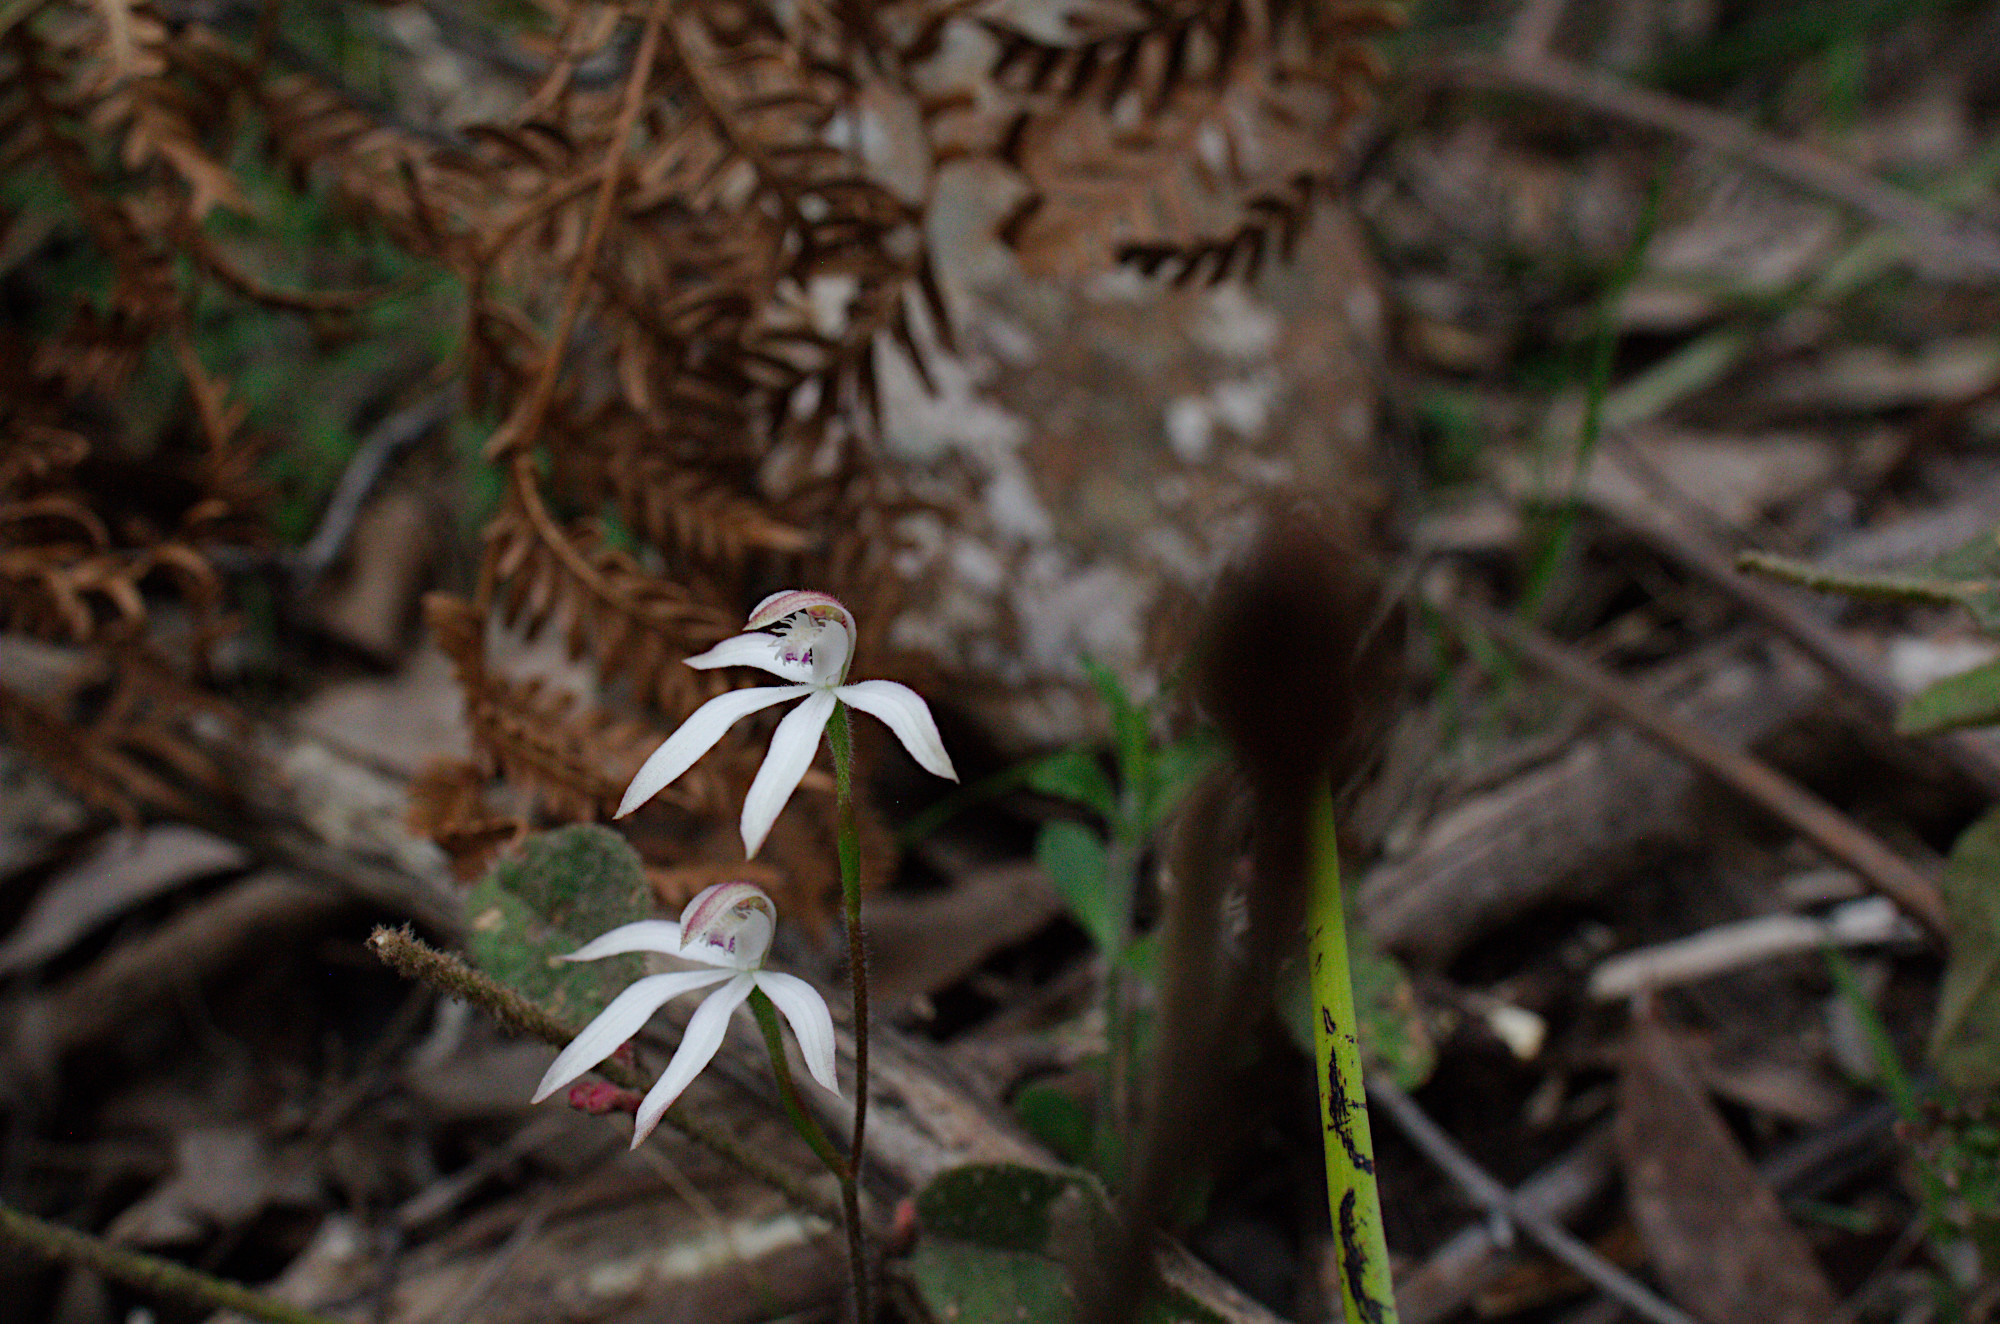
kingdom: Plantae
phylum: Tracheophyta
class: Liliopsida
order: Asparagales
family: Orchidaceae
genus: Caladenia
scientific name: Caladenia dimorpha
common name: Spicy caps
